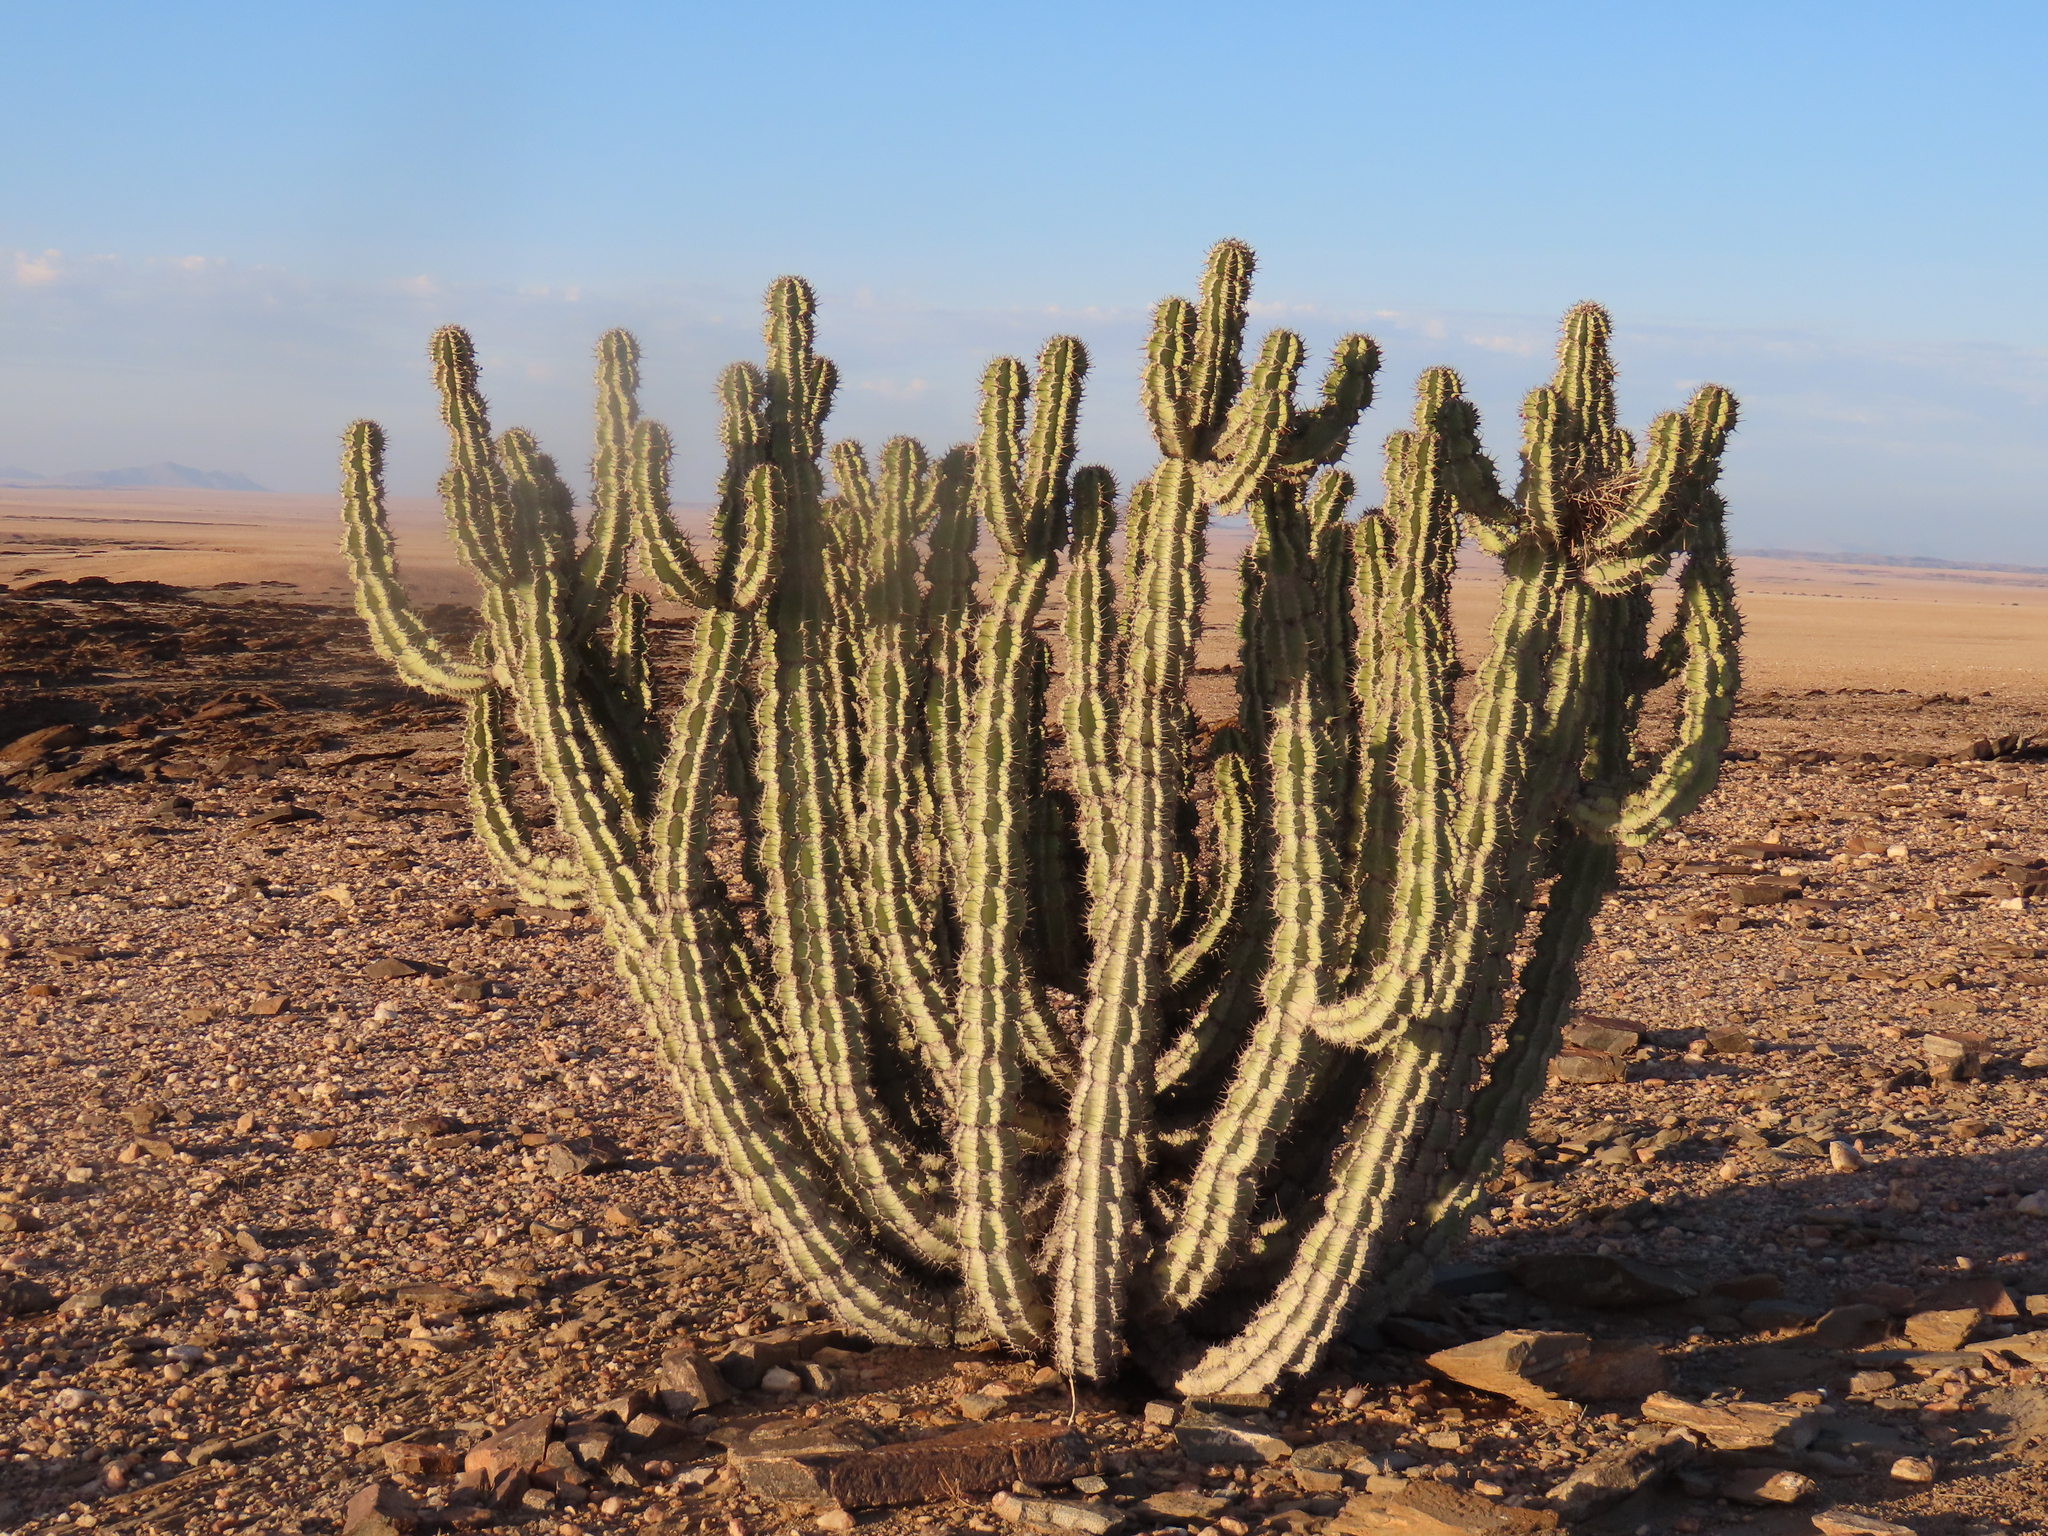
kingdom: Plantae
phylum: Tracheophyta
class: Magnoliopsida
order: Malpighiales
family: Euphorbiaceae
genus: Euphorbia
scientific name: Euphorbia virosa
